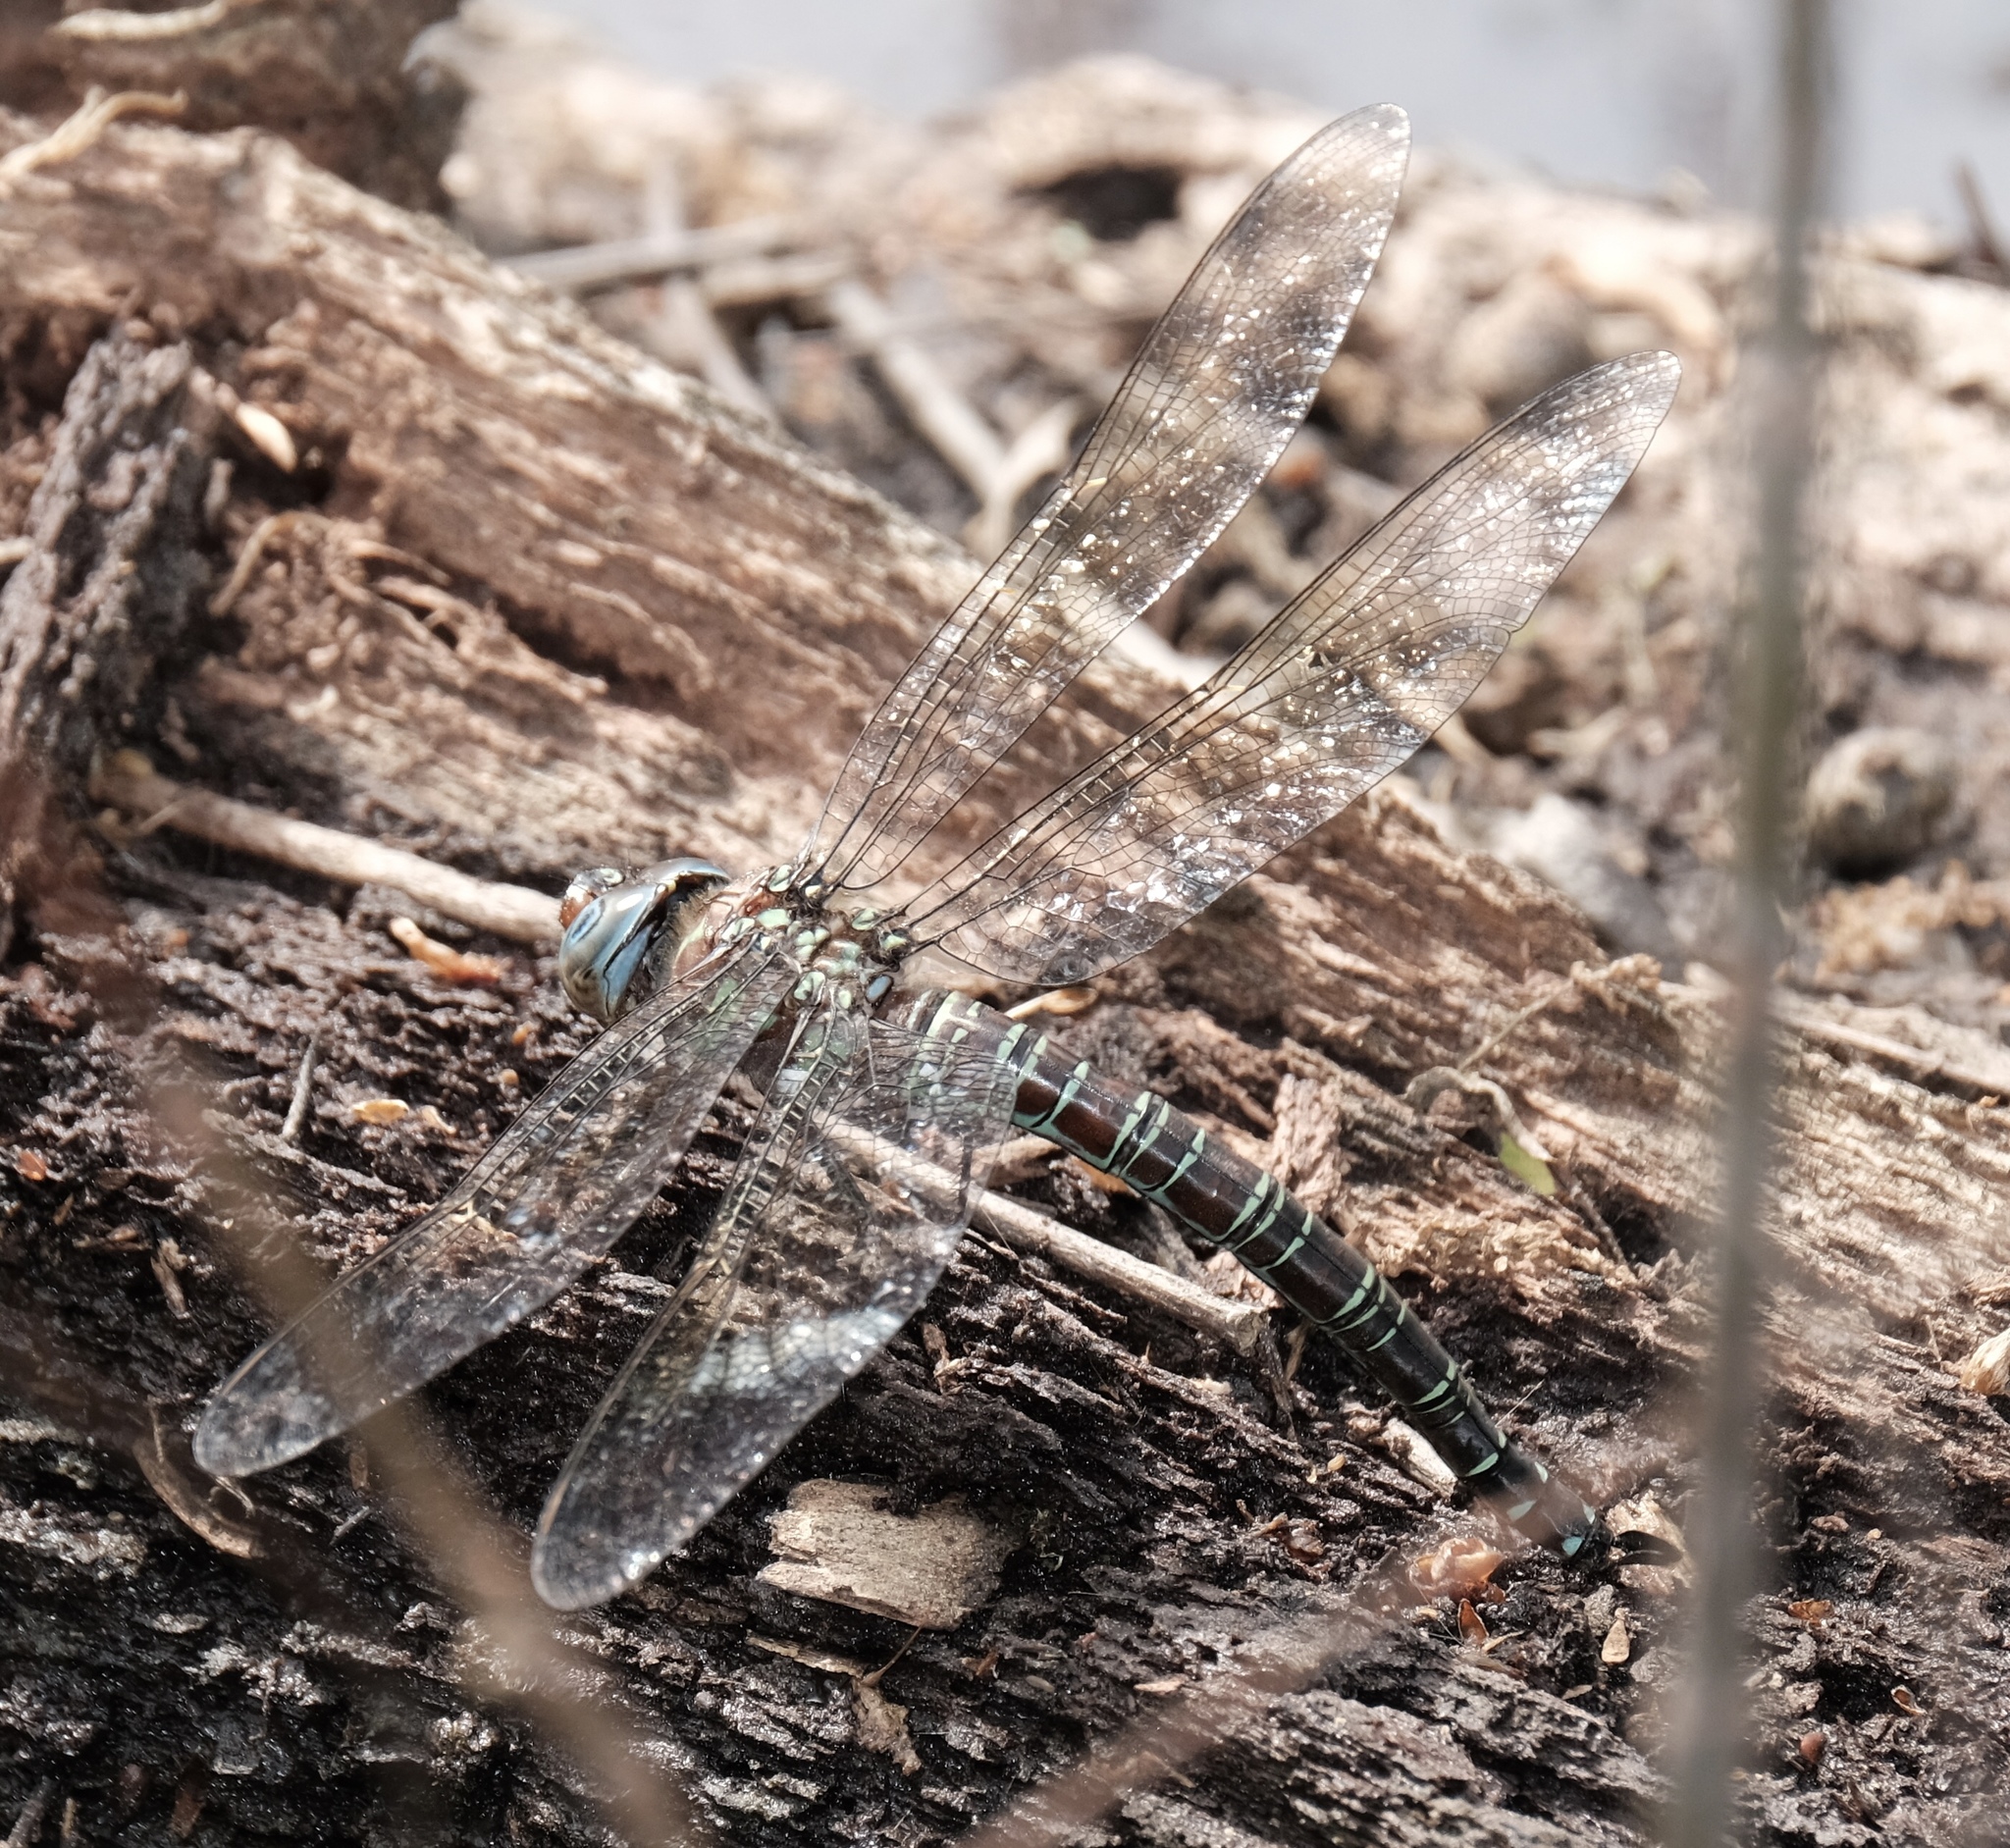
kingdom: Animalia
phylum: Arthropoda
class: Insecta
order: Odonata
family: Aeshnidae
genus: Epiaeschna
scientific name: Epiaeschna heros
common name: Swamp darner
